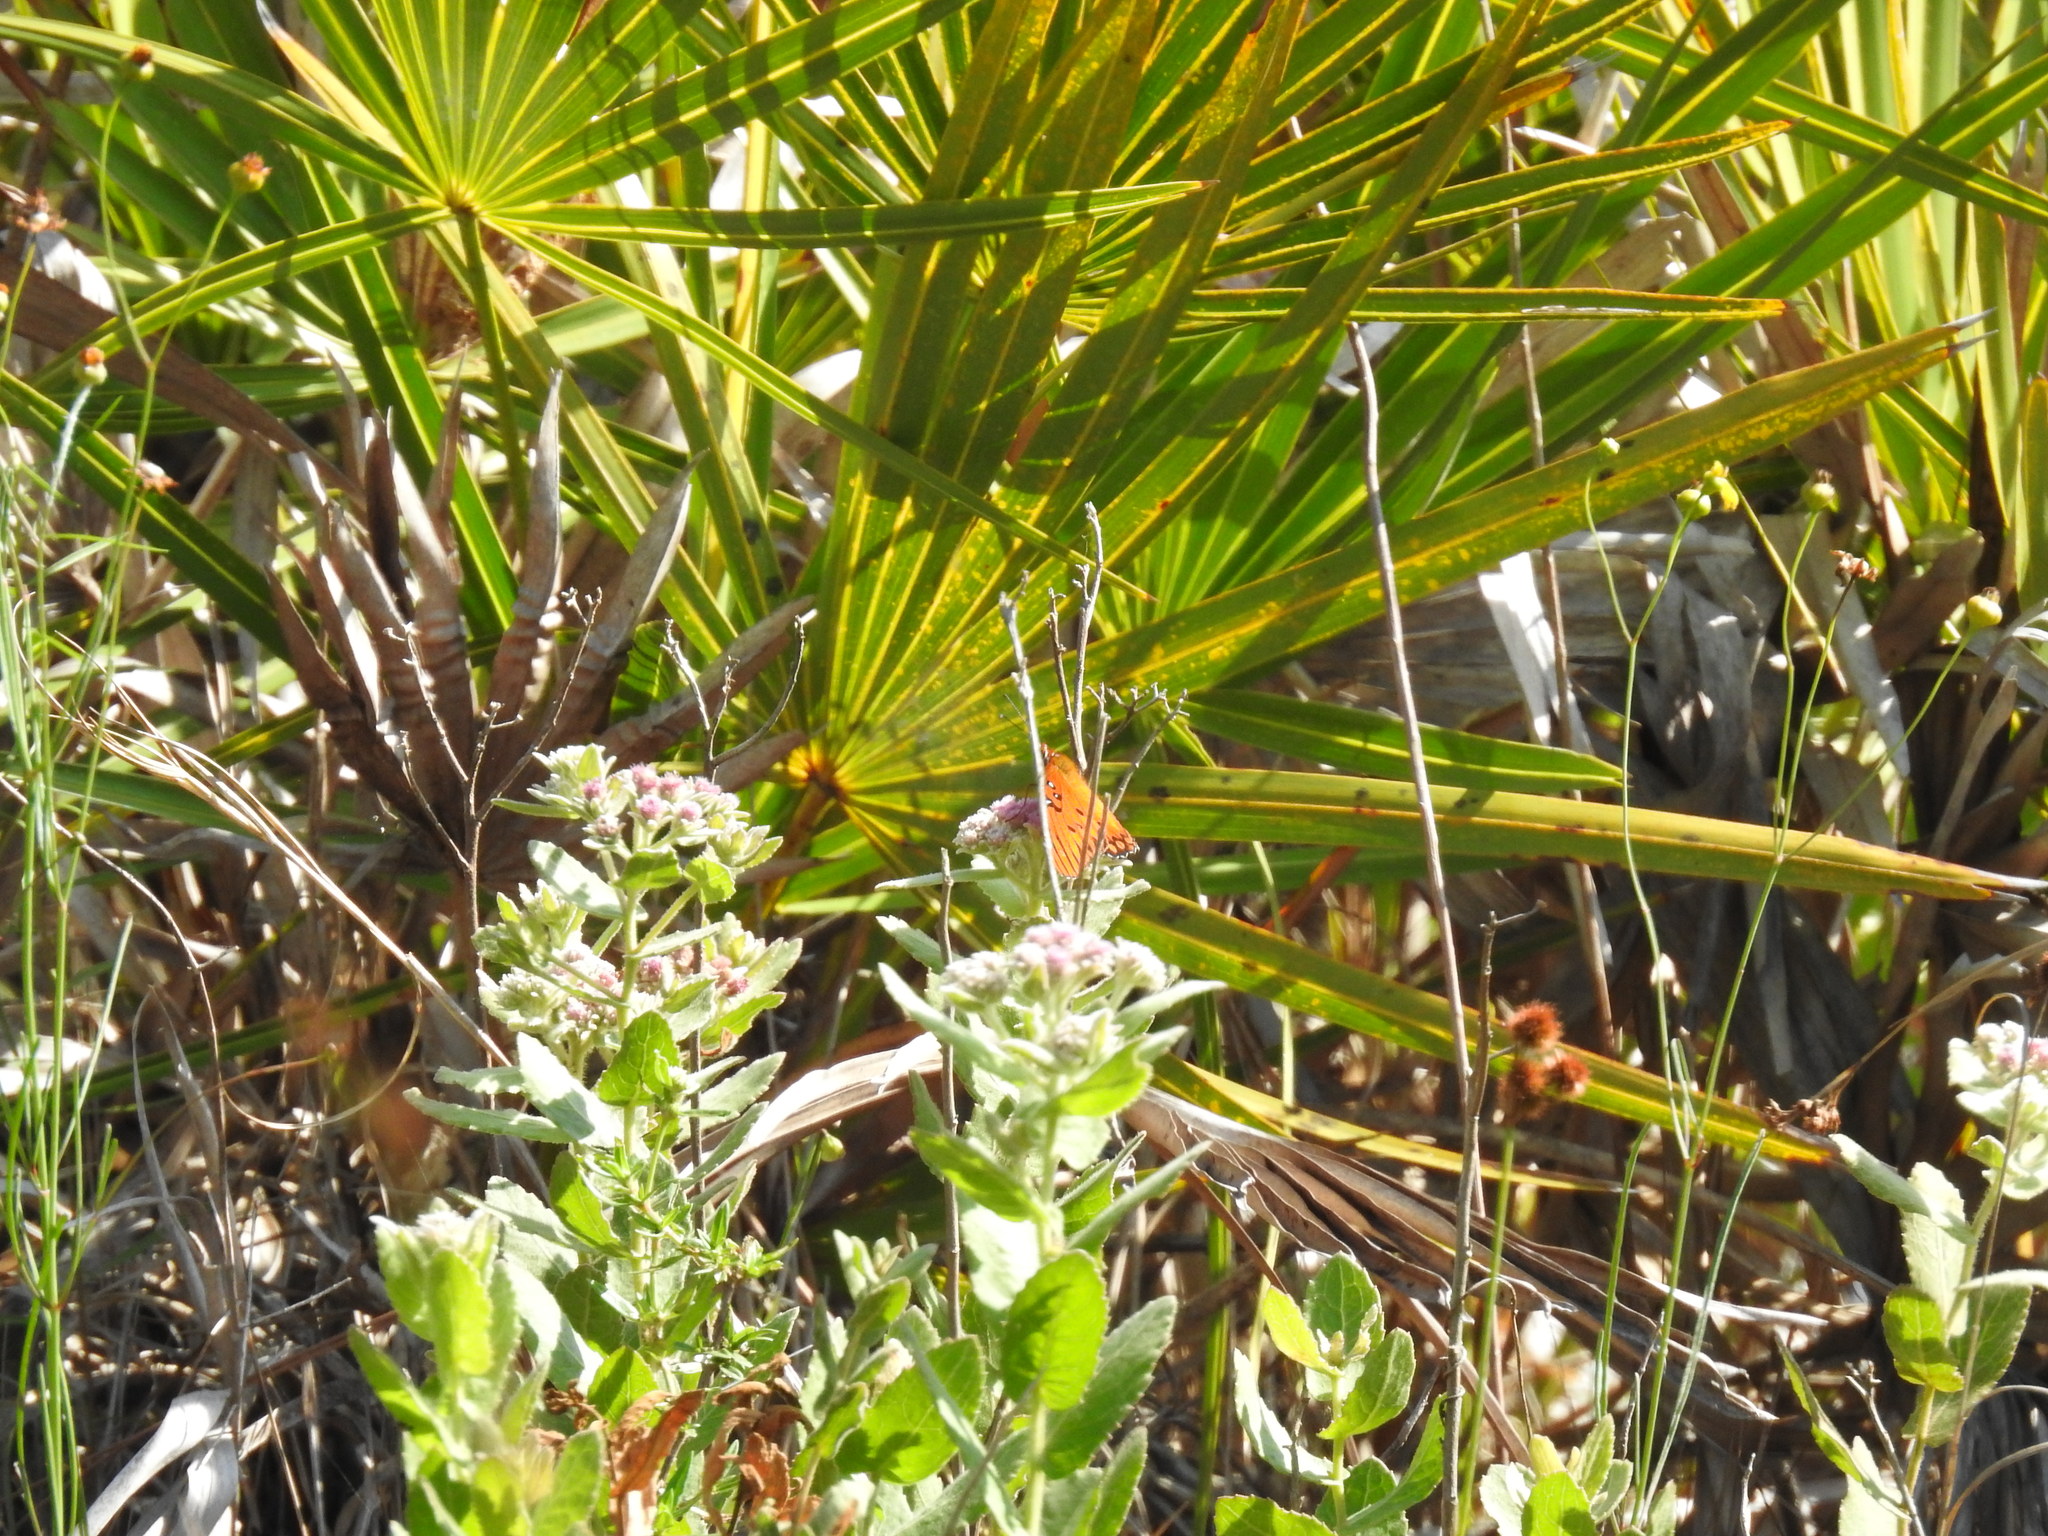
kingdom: Animalia
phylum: Arthropoda
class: Insecta
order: Lepidoptera
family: Nymphalidae
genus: Dione
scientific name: Dione vanillae
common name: Gulf fritillary
